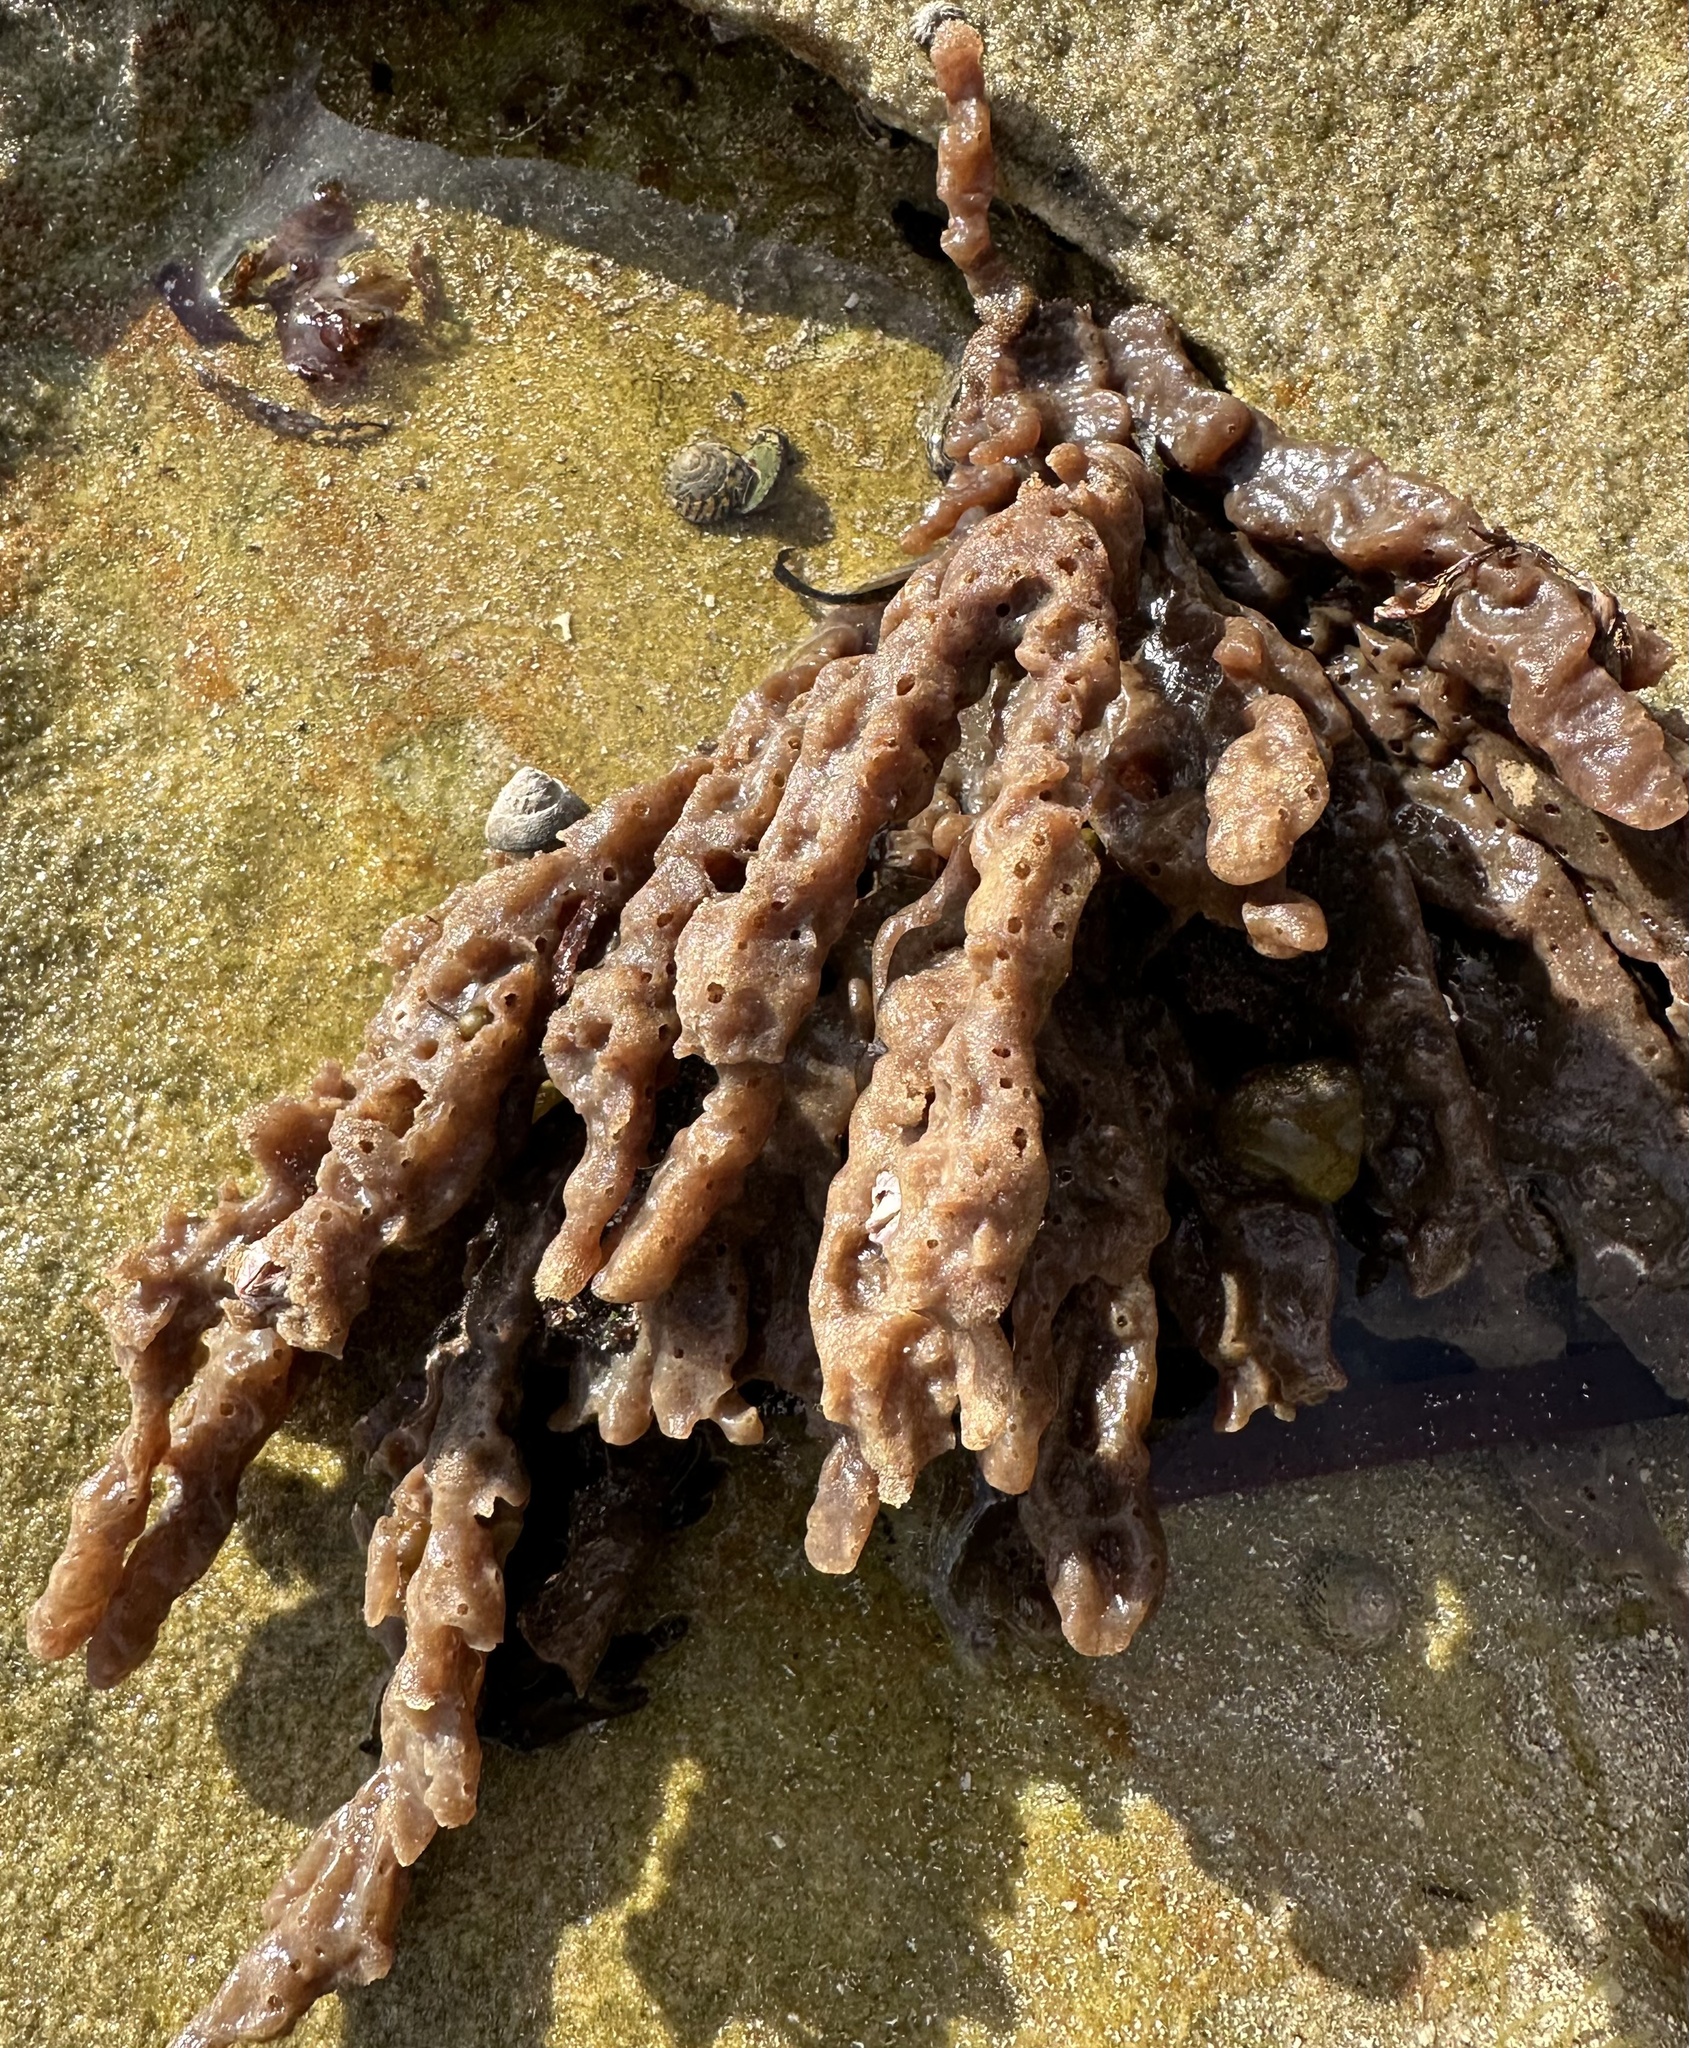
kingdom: Animalia
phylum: Porifera
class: Demospongiae
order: Haplosclerida
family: Callyspongiidae
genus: Callyspongia
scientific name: Callyspongia azurea
